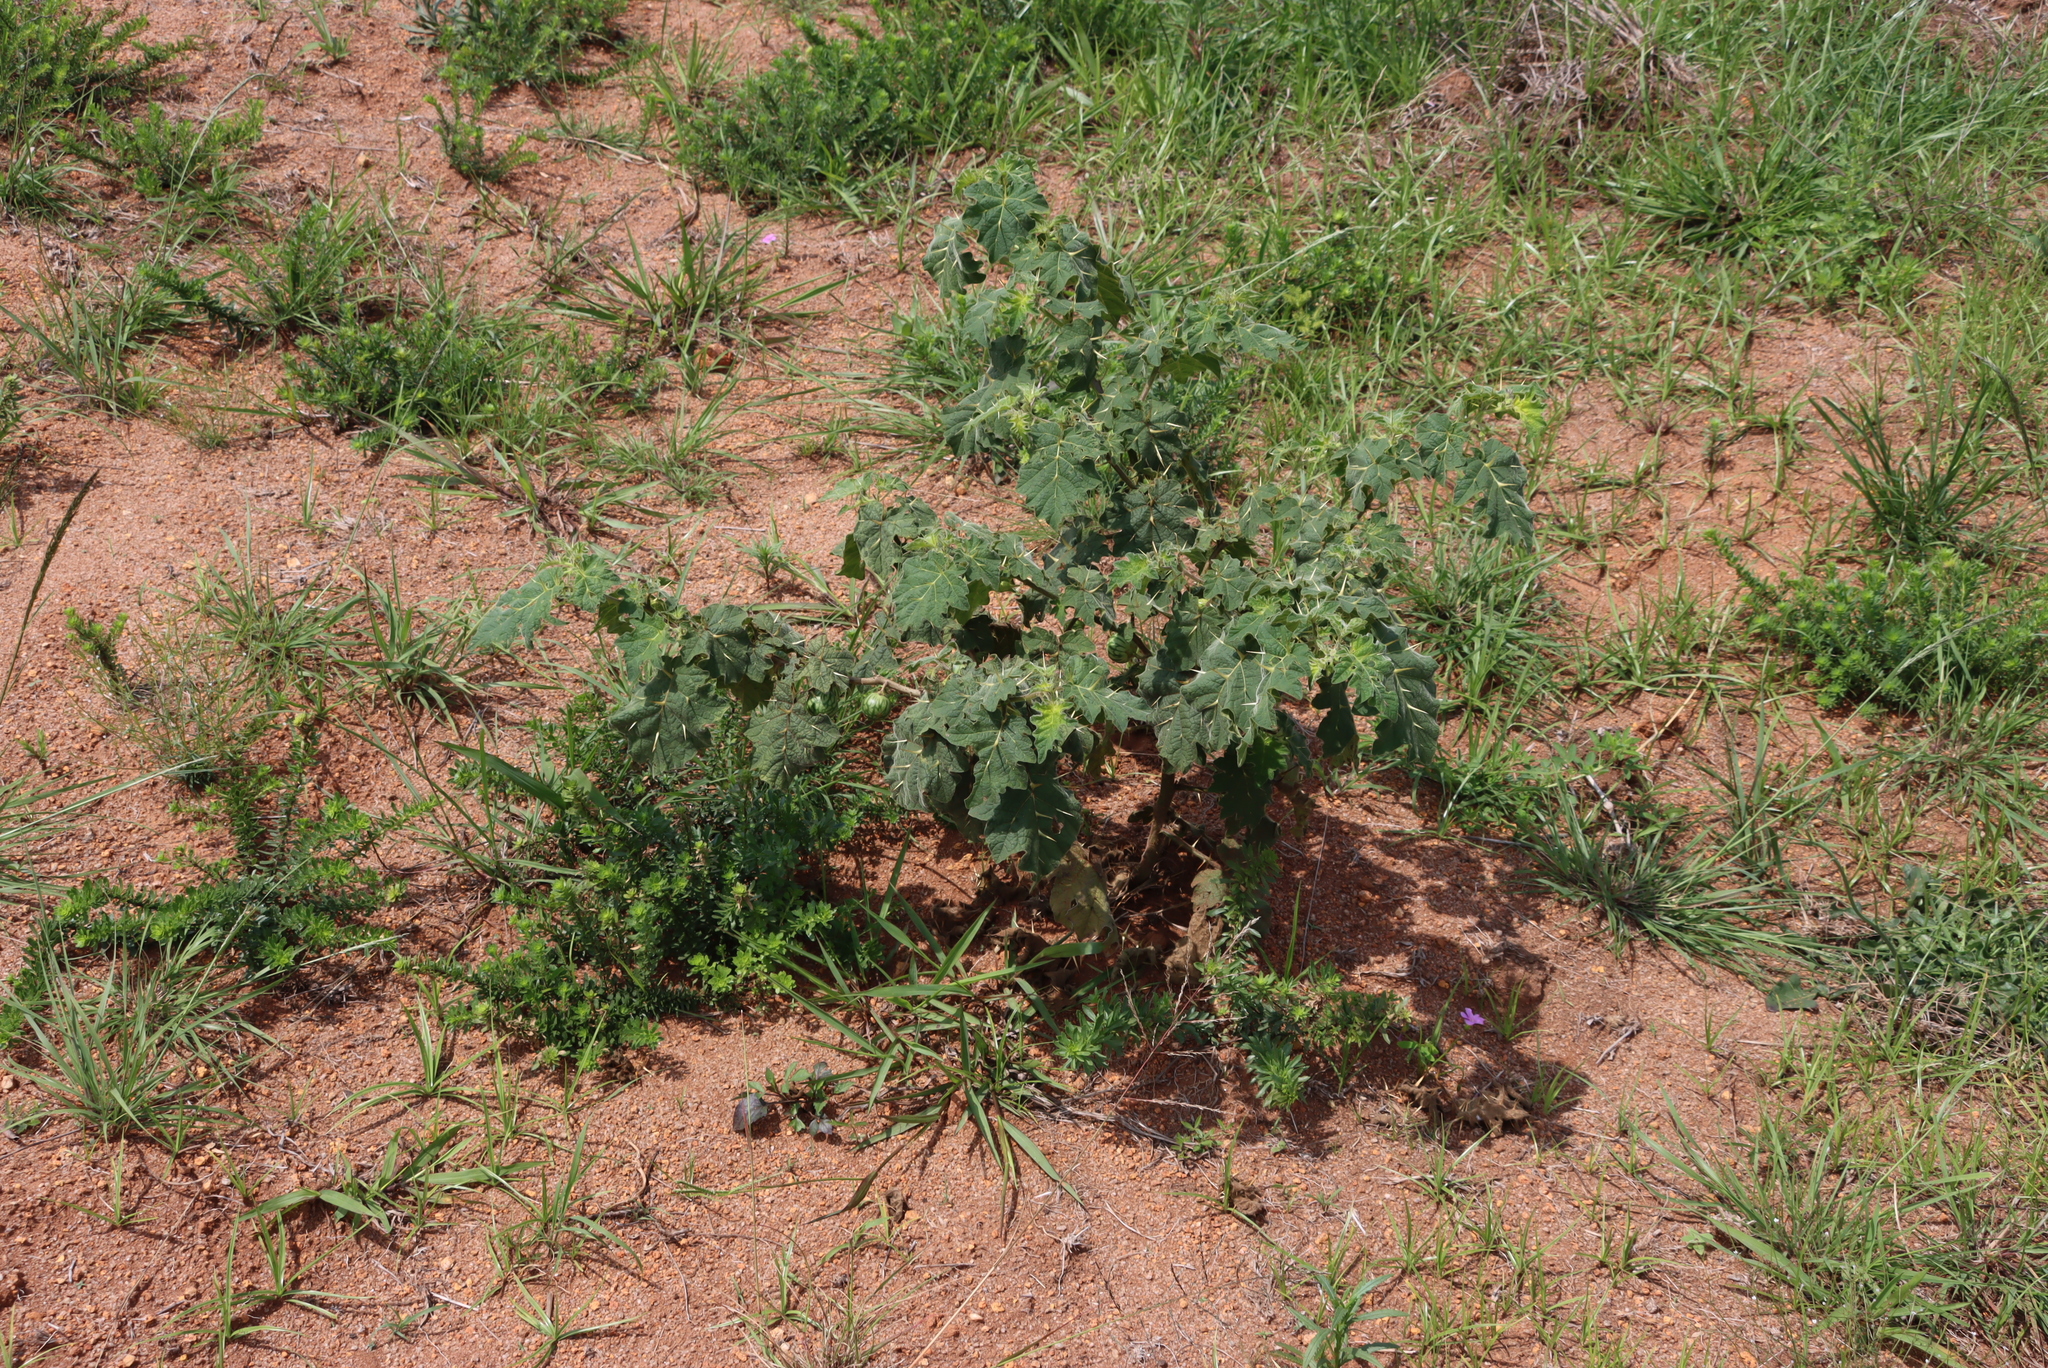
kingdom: Plantae
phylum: Tracheophyta
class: Magnoliopsida
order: Solanales
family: Solanaceae
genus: Solanum
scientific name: Solanum viarum
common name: Tropical soda apple
